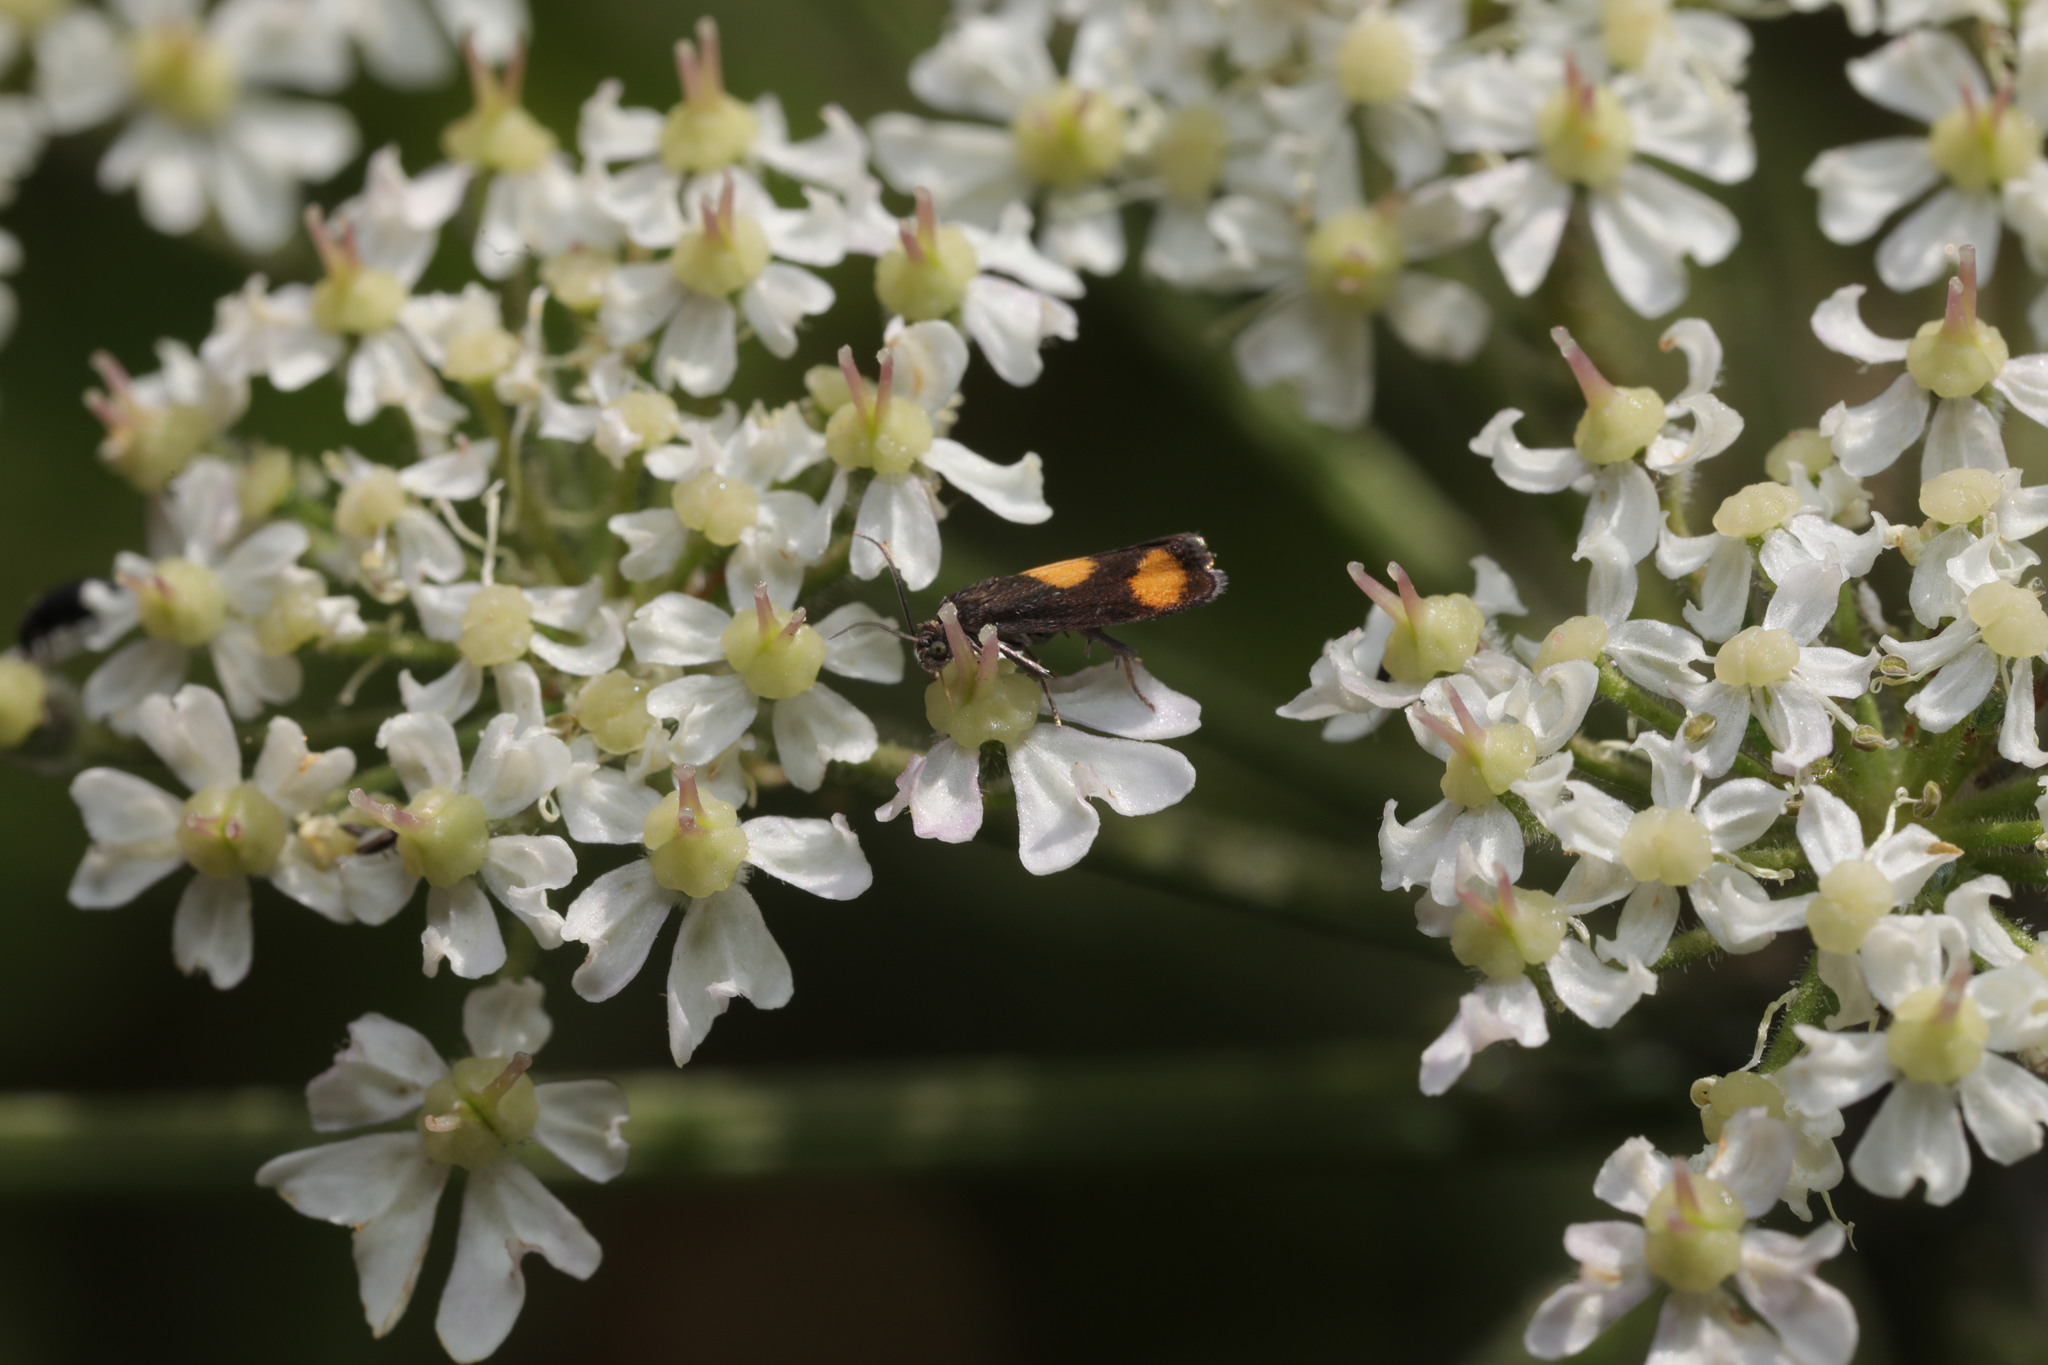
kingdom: Animalia
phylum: Arthropoda
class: Insecta
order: Lepidoptera
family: Tortricidae
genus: Pammene
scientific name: Pammene aurana
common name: Orange-spot piercer
